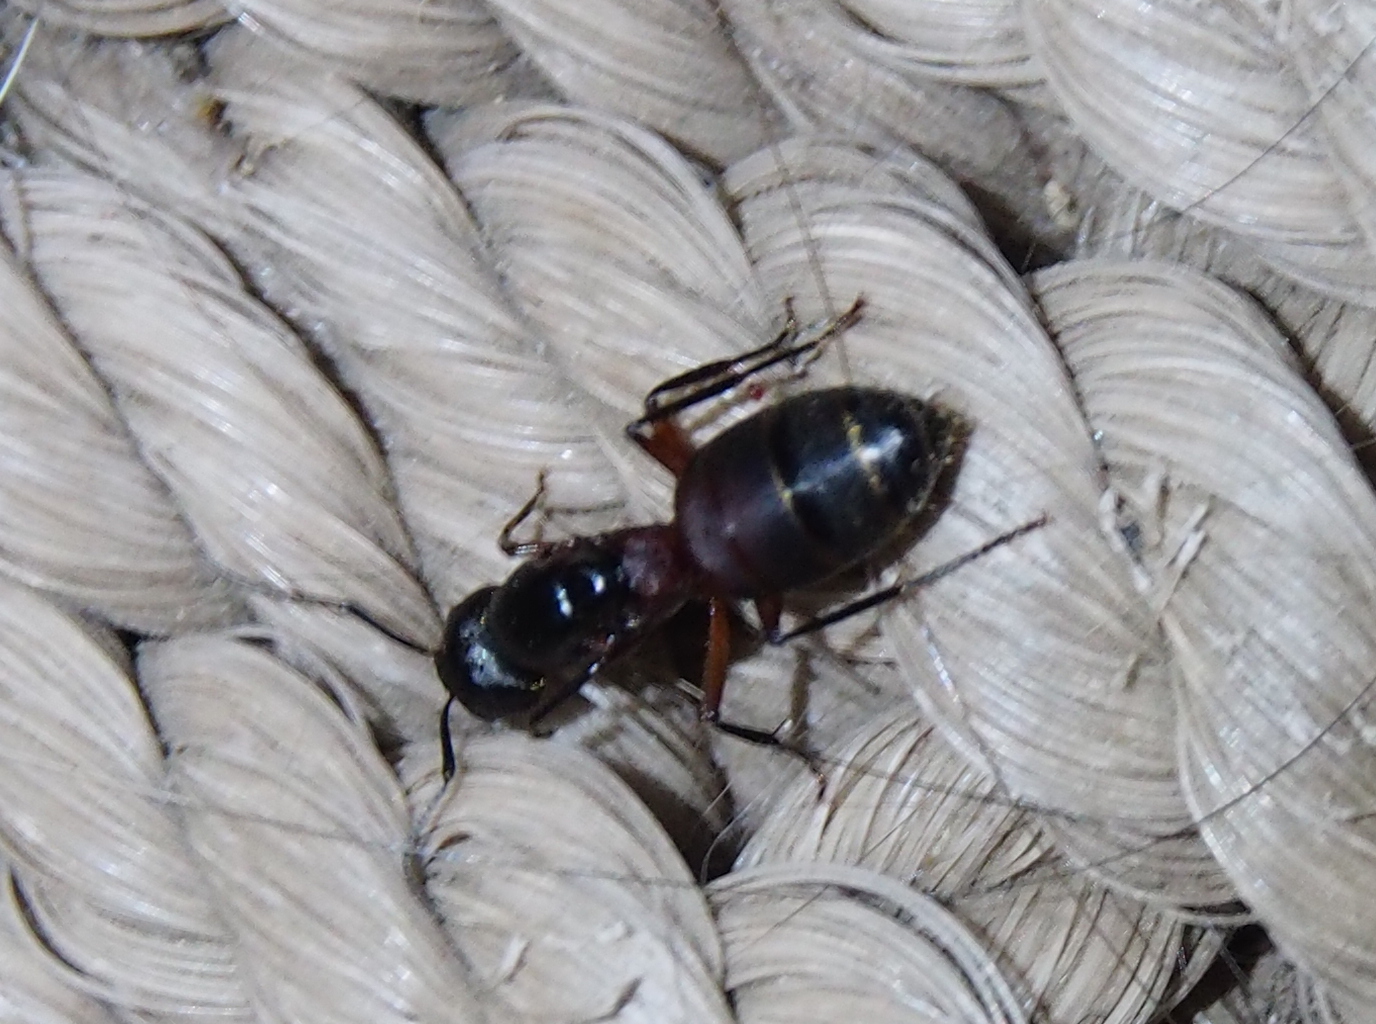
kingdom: Animalia
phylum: Arthropoda
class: Insecta
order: Hymenoptera
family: Formicidae
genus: Camponotus
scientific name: Camponotus chromaiodes
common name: Red carpenter ant
